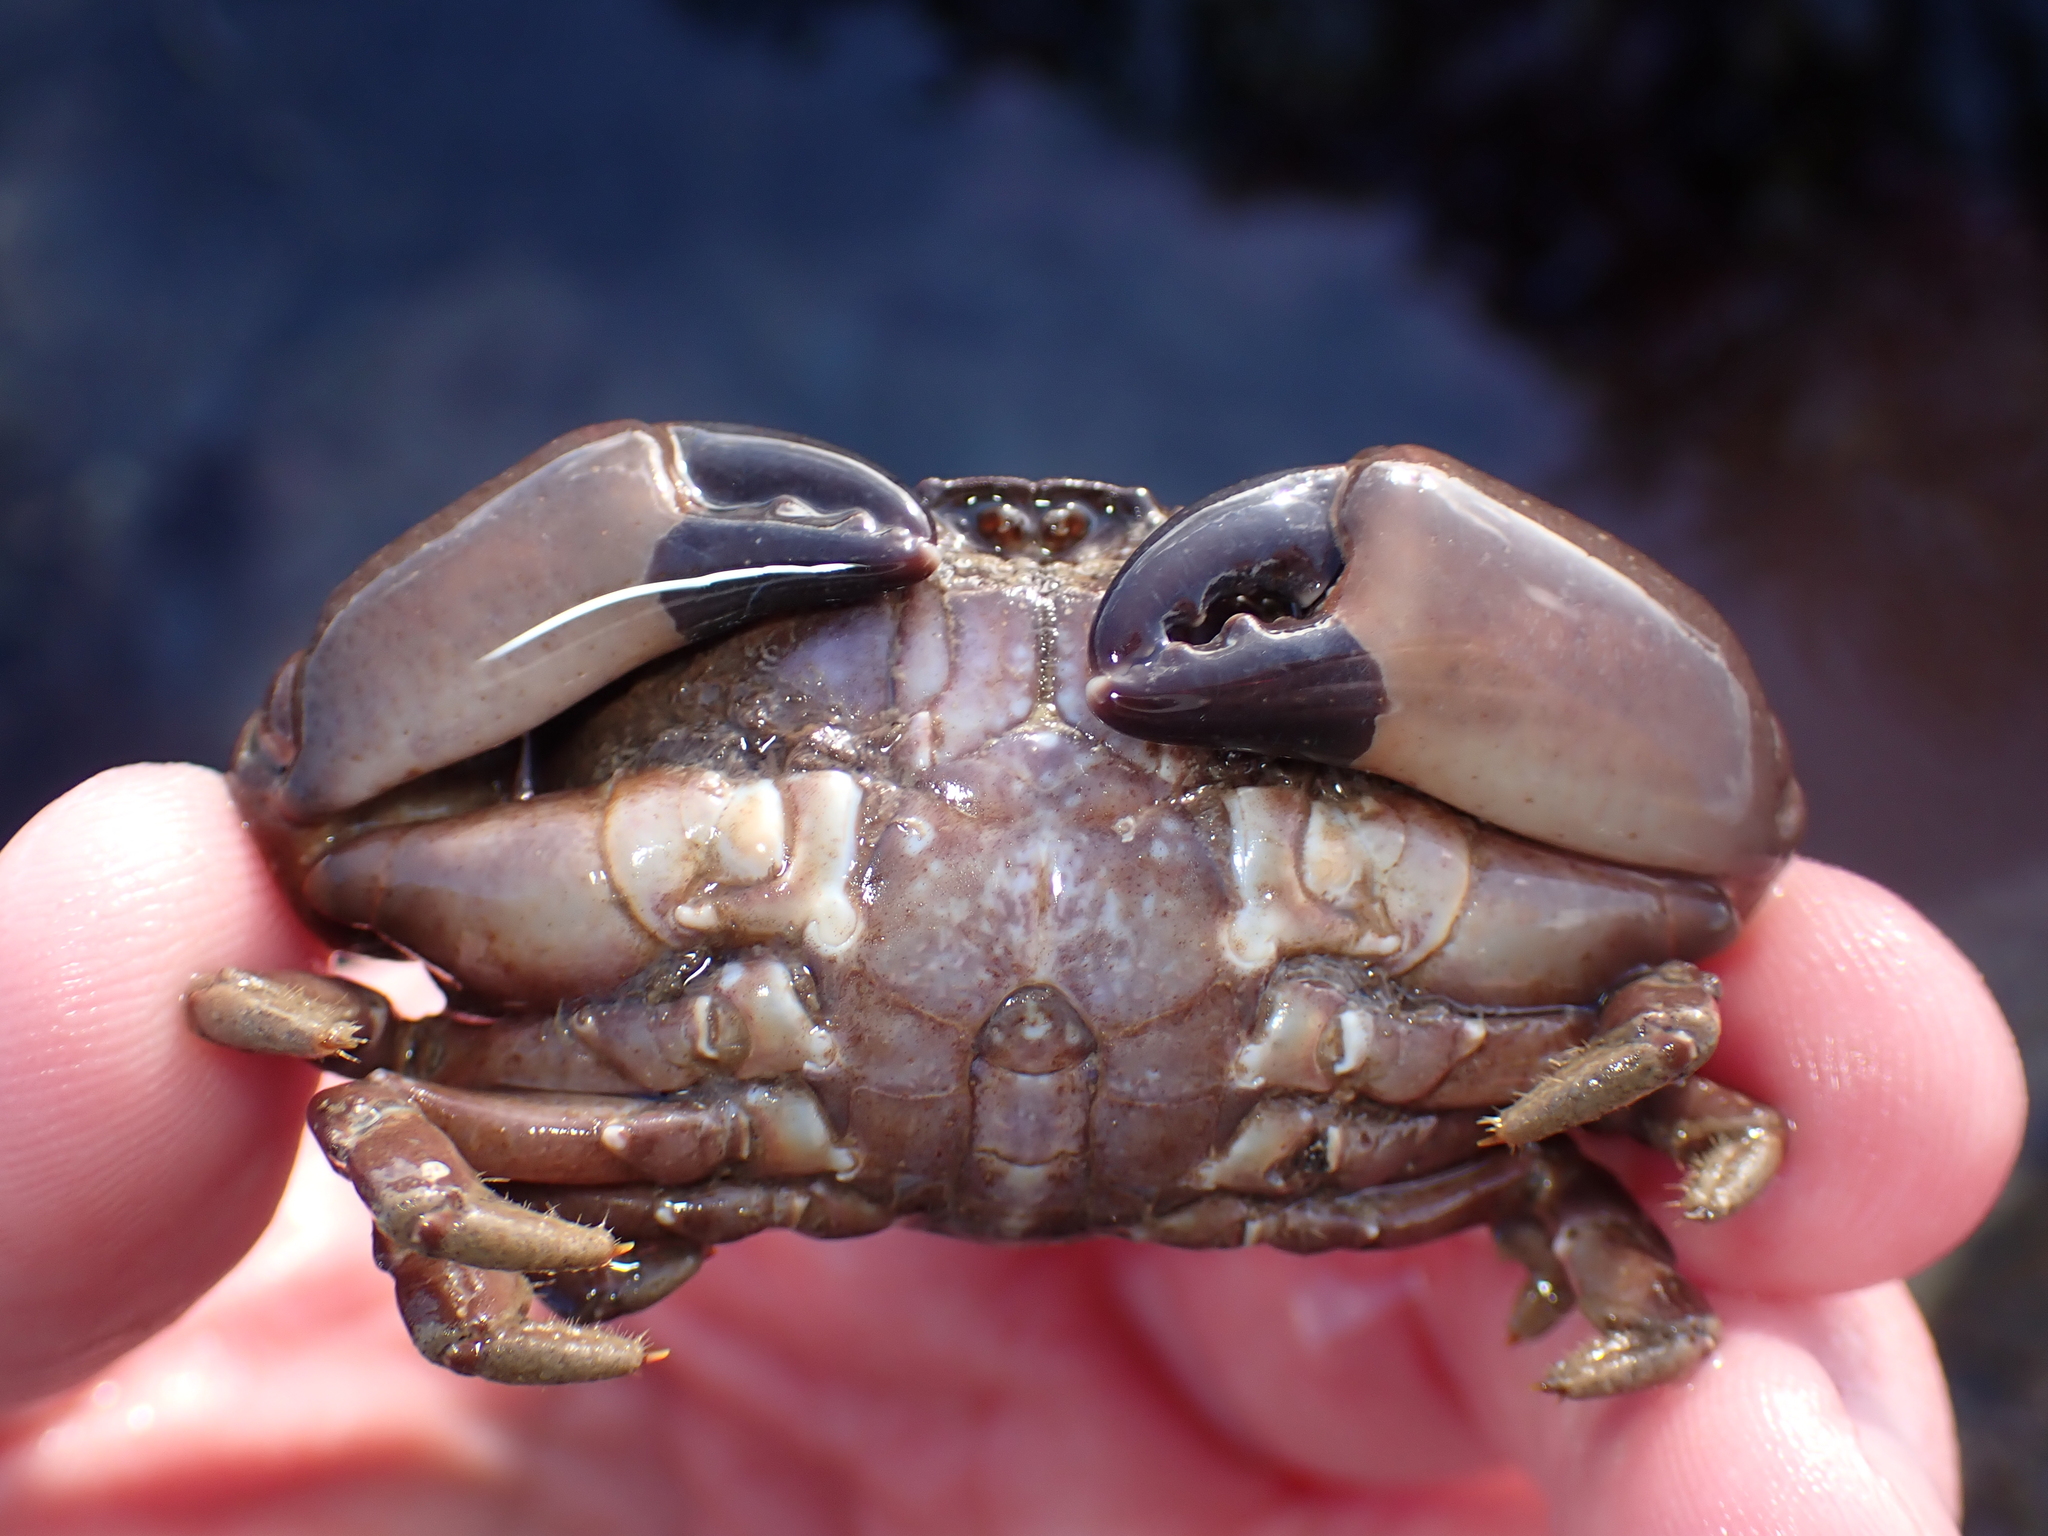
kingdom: Animalia
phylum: Arthropoda
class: Malacostraca
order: Decapoda
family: Xanthidae
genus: Xantho
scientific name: Xantho hydrophilus
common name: Montagu's crab
